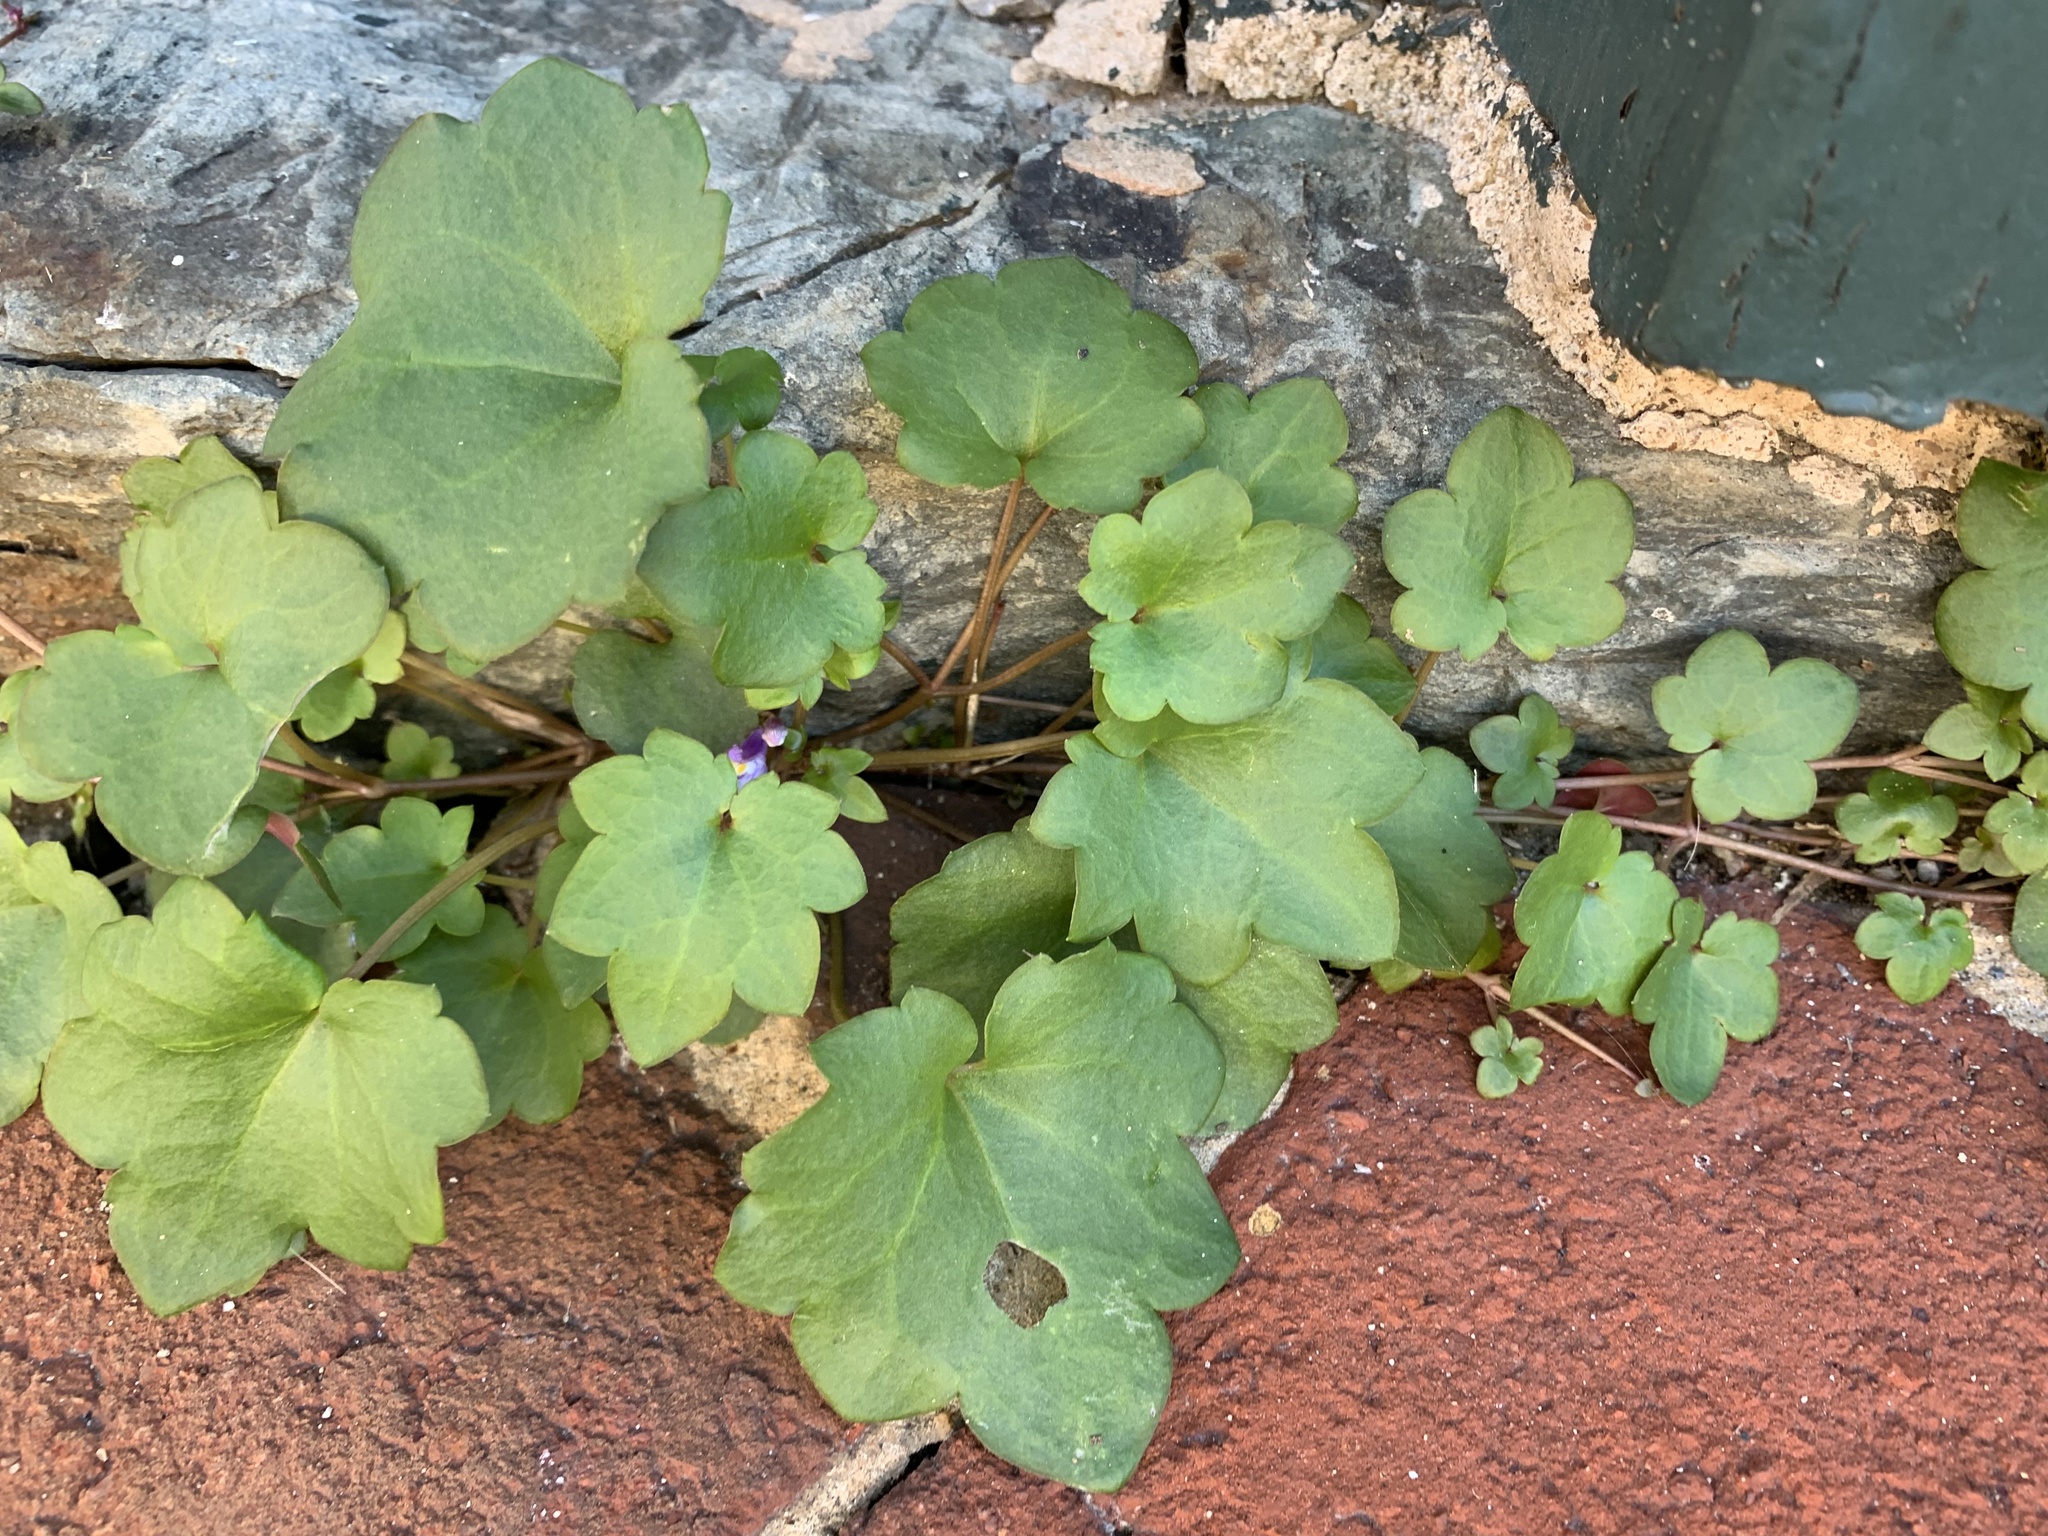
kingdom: Plantae
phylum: Tracheophyta
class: Magnoliopsida
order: Lamiales
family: Plantaginaceae
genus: Cymbalaria
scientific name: Cymbalaria muralis
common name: Ivy-leaved toadflax
